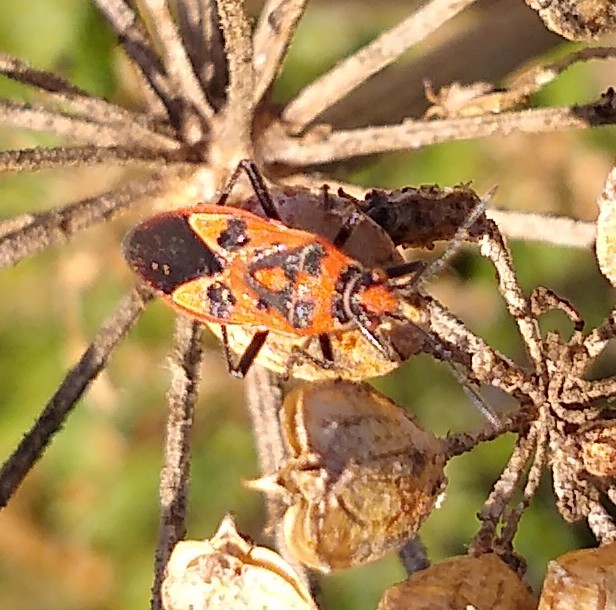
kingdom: Animalia
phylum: Arthropoda
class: Insecta
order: Hemiptera
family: Rhopalidae
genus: Corizus
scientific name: Corizus hyoscyami
